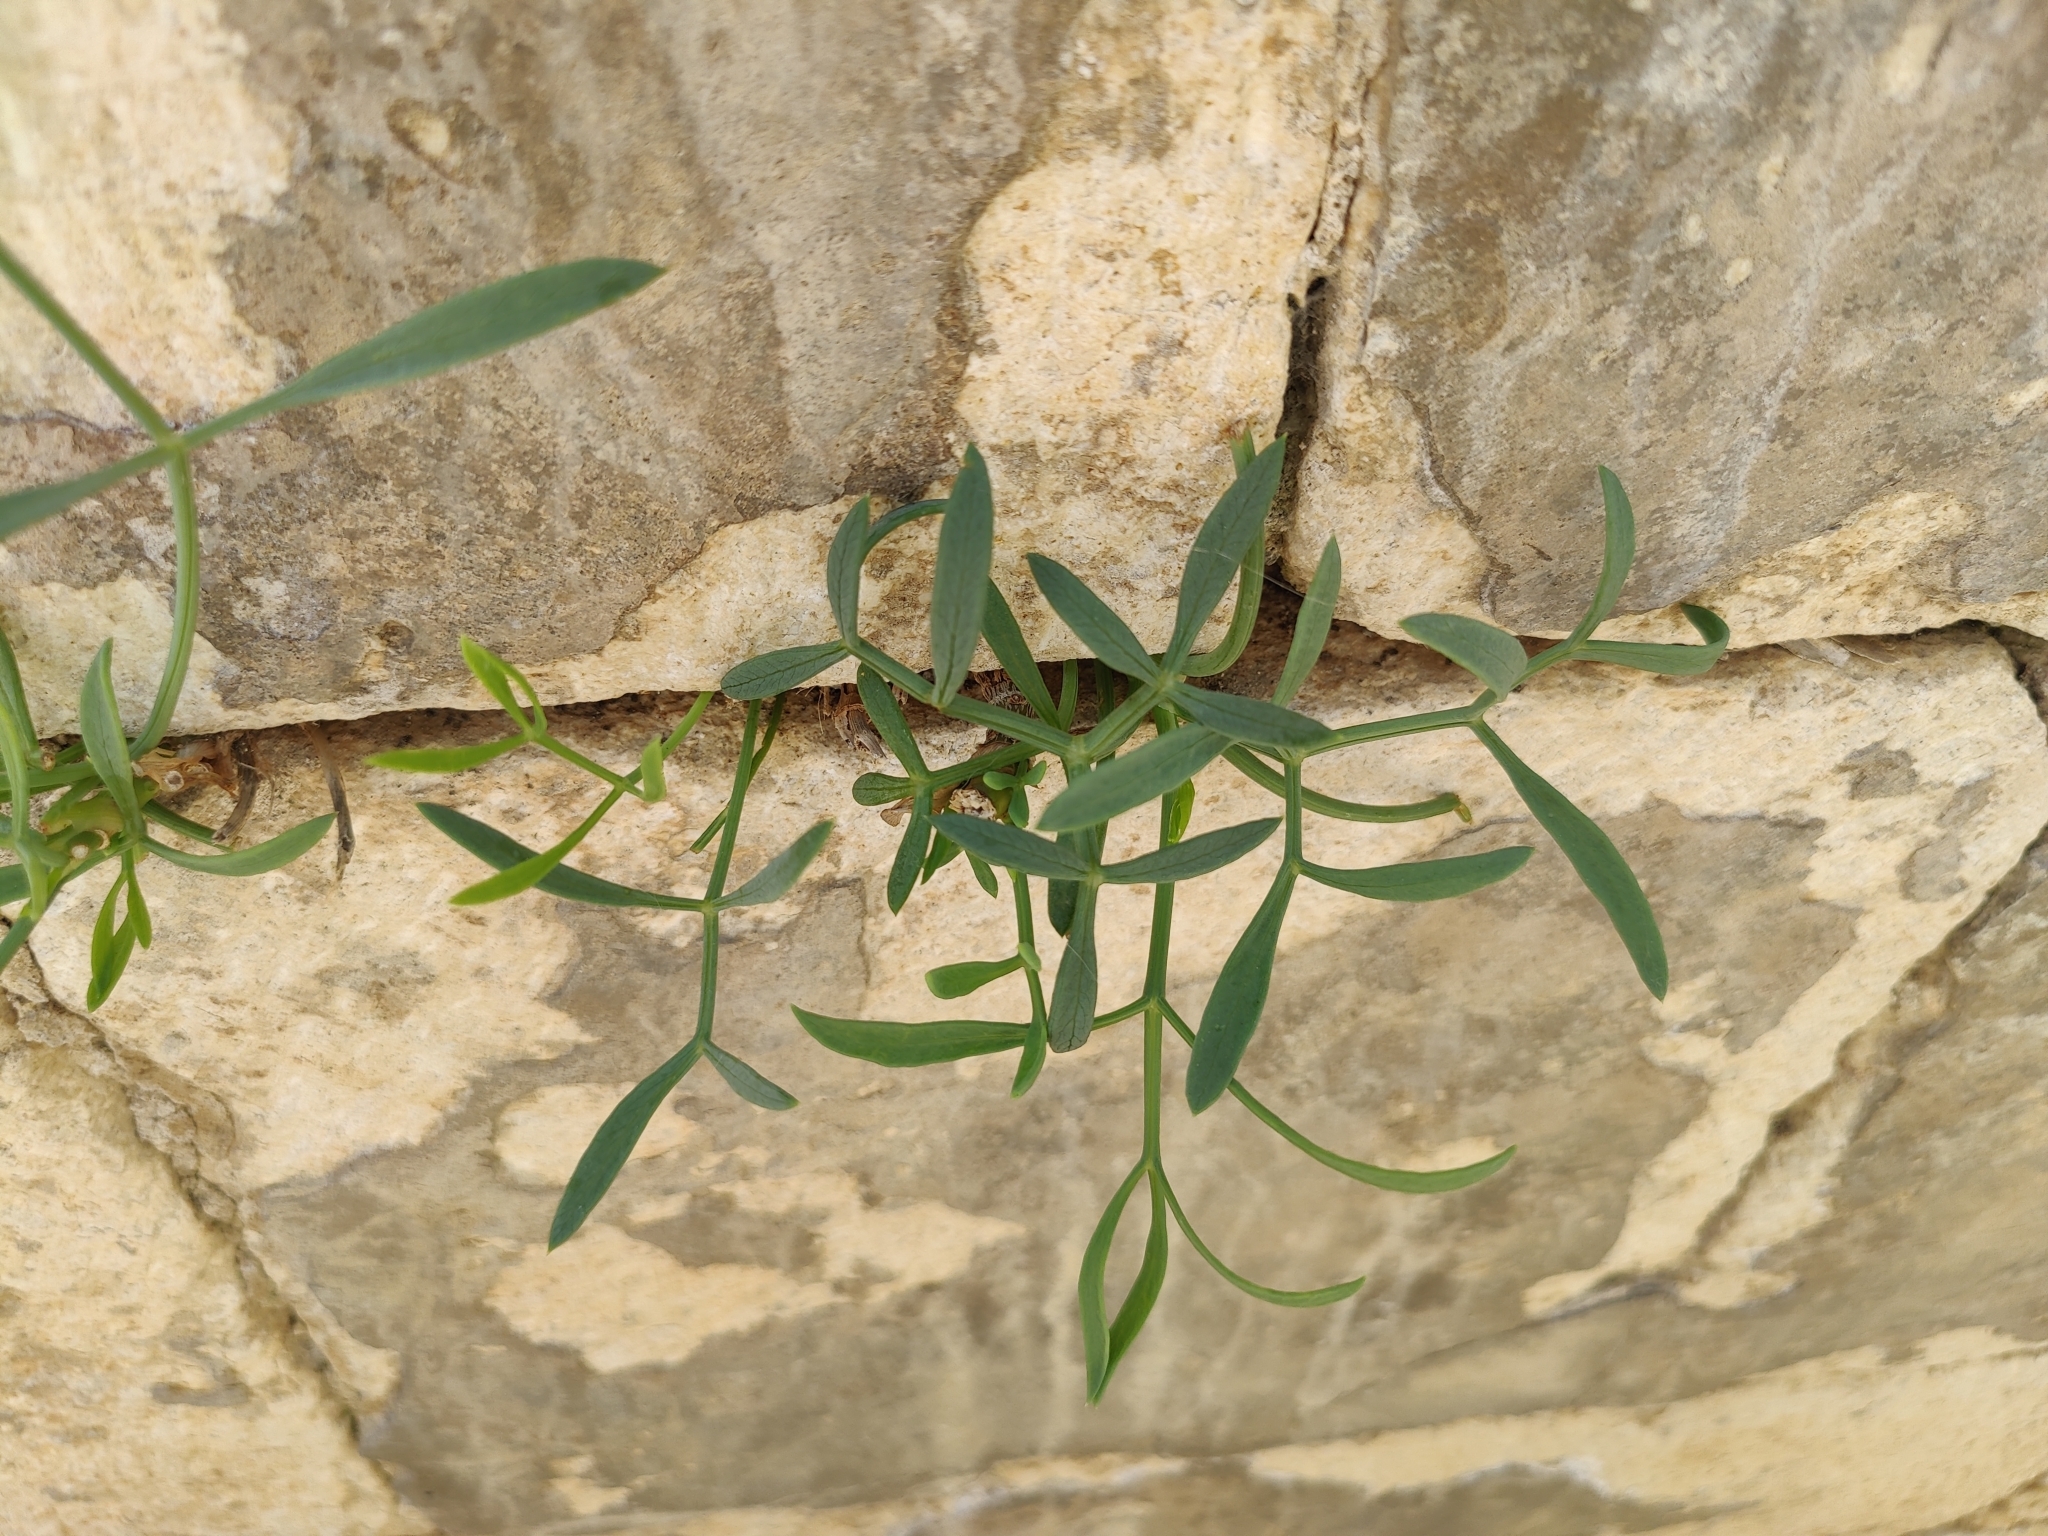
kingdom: Plantae
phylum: Tracheophyta
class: Magnoliopsida
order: Apiales
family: Apiaceae
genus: Crithmum
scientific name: Crithmum maritimum
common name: Rock samphire
